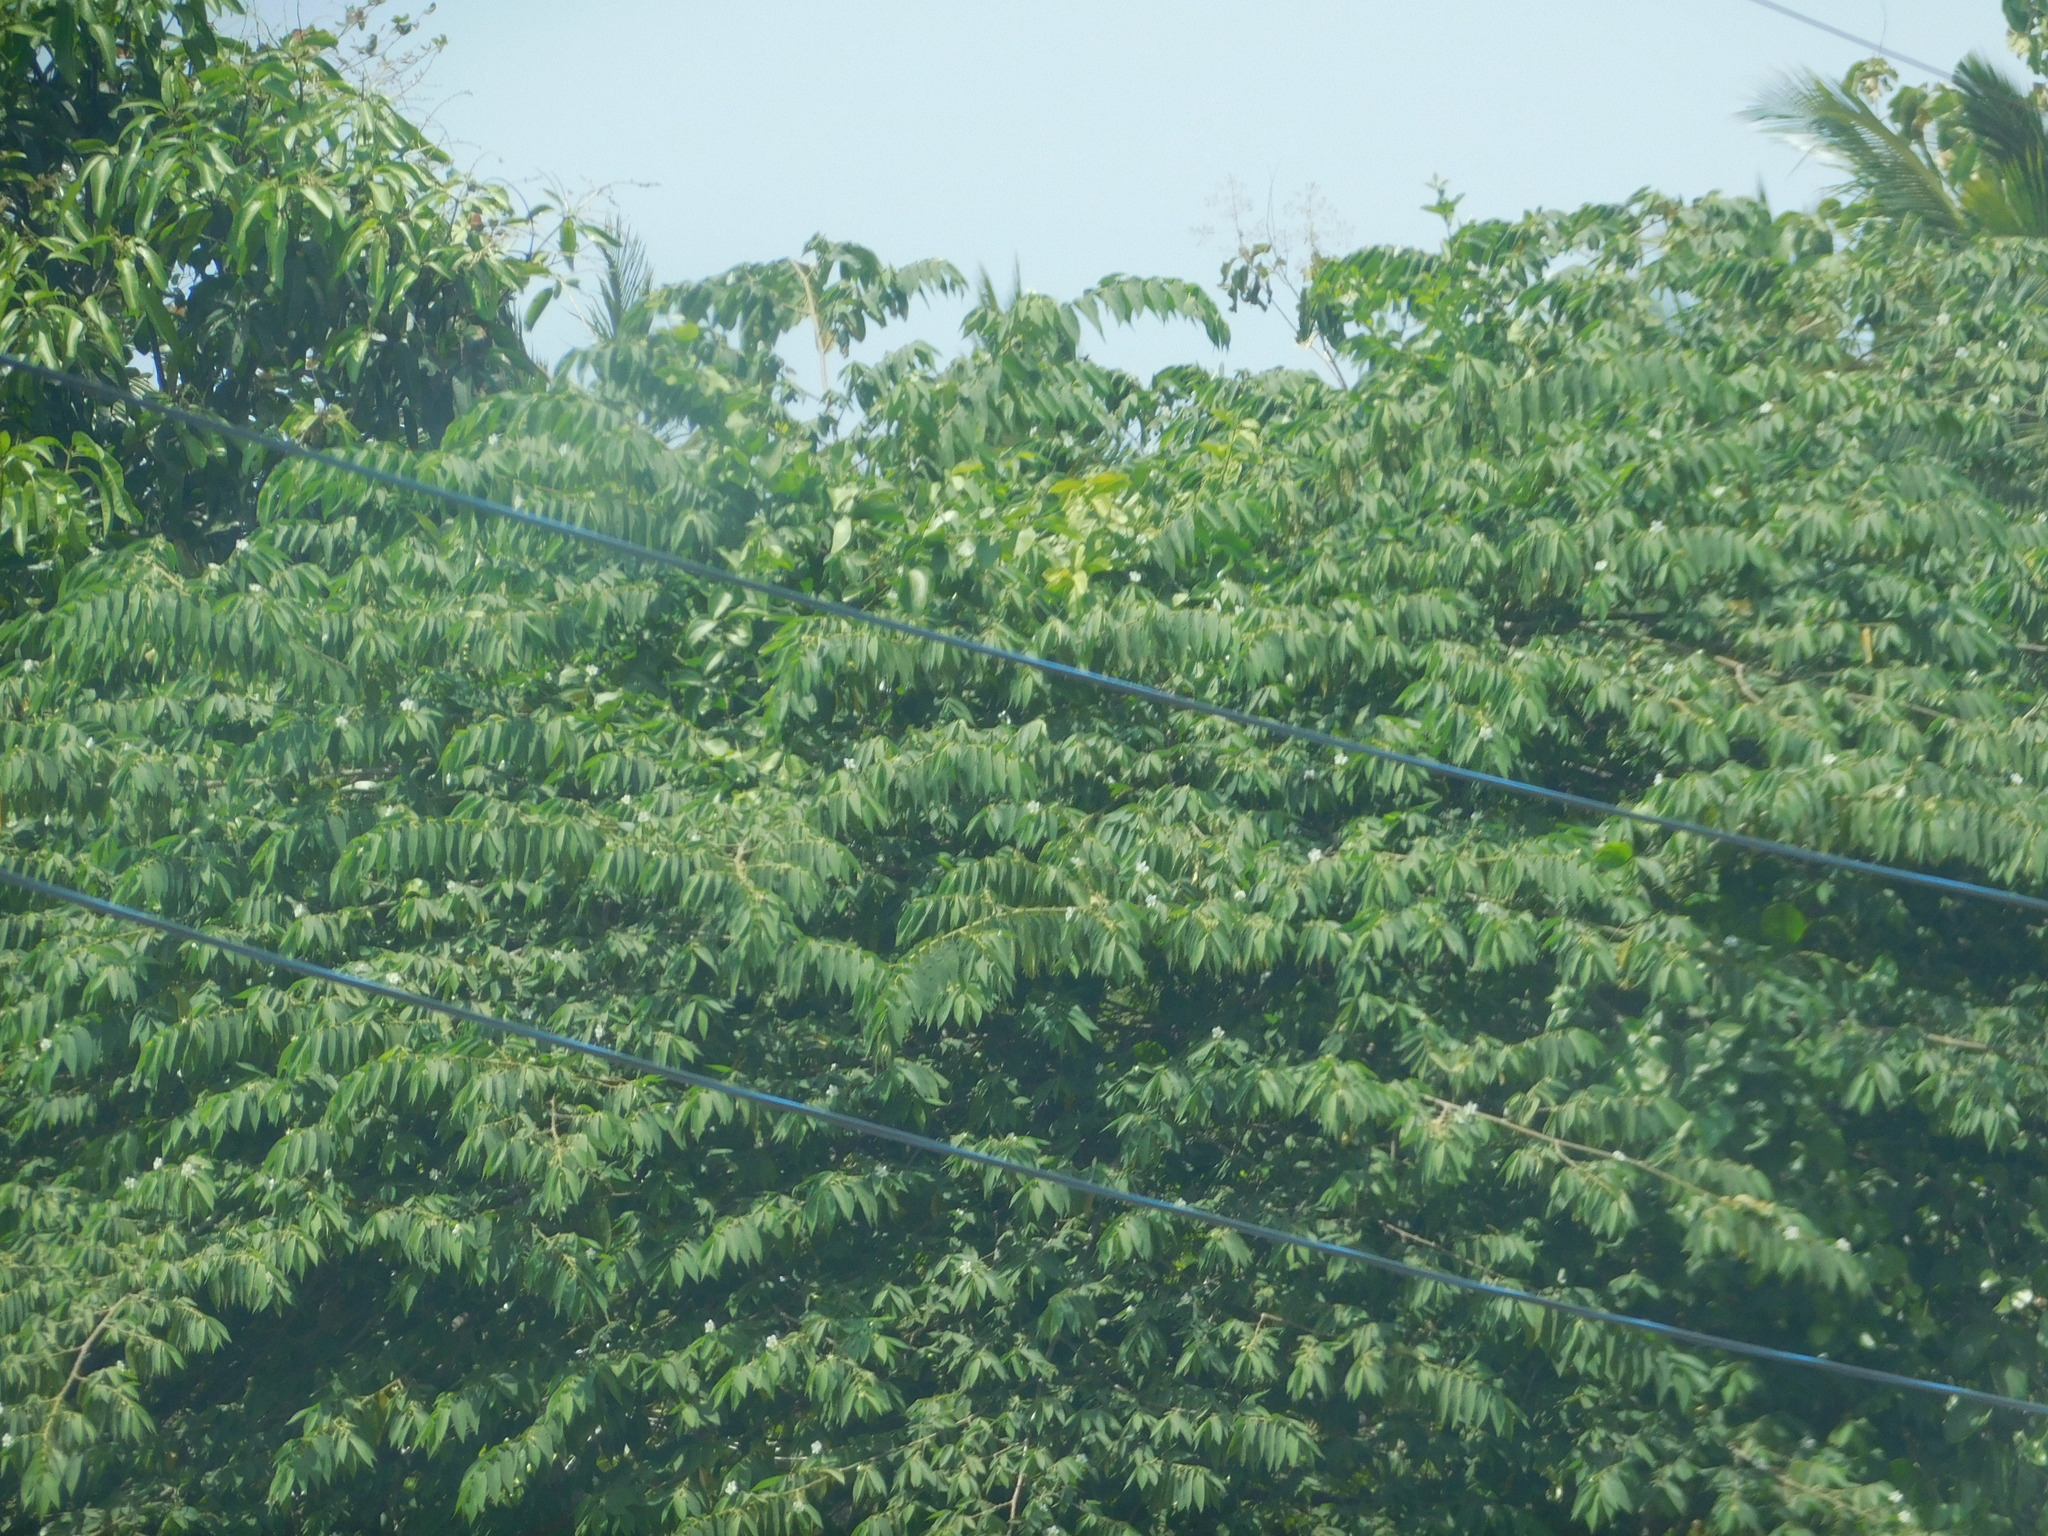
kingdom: Plantae
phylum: Tracheophyta
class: Magnoliopsida
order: Malvales
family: Muntingiaceae
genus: Muntingia
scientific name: Muntingia calabura
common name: Strawberrytree
